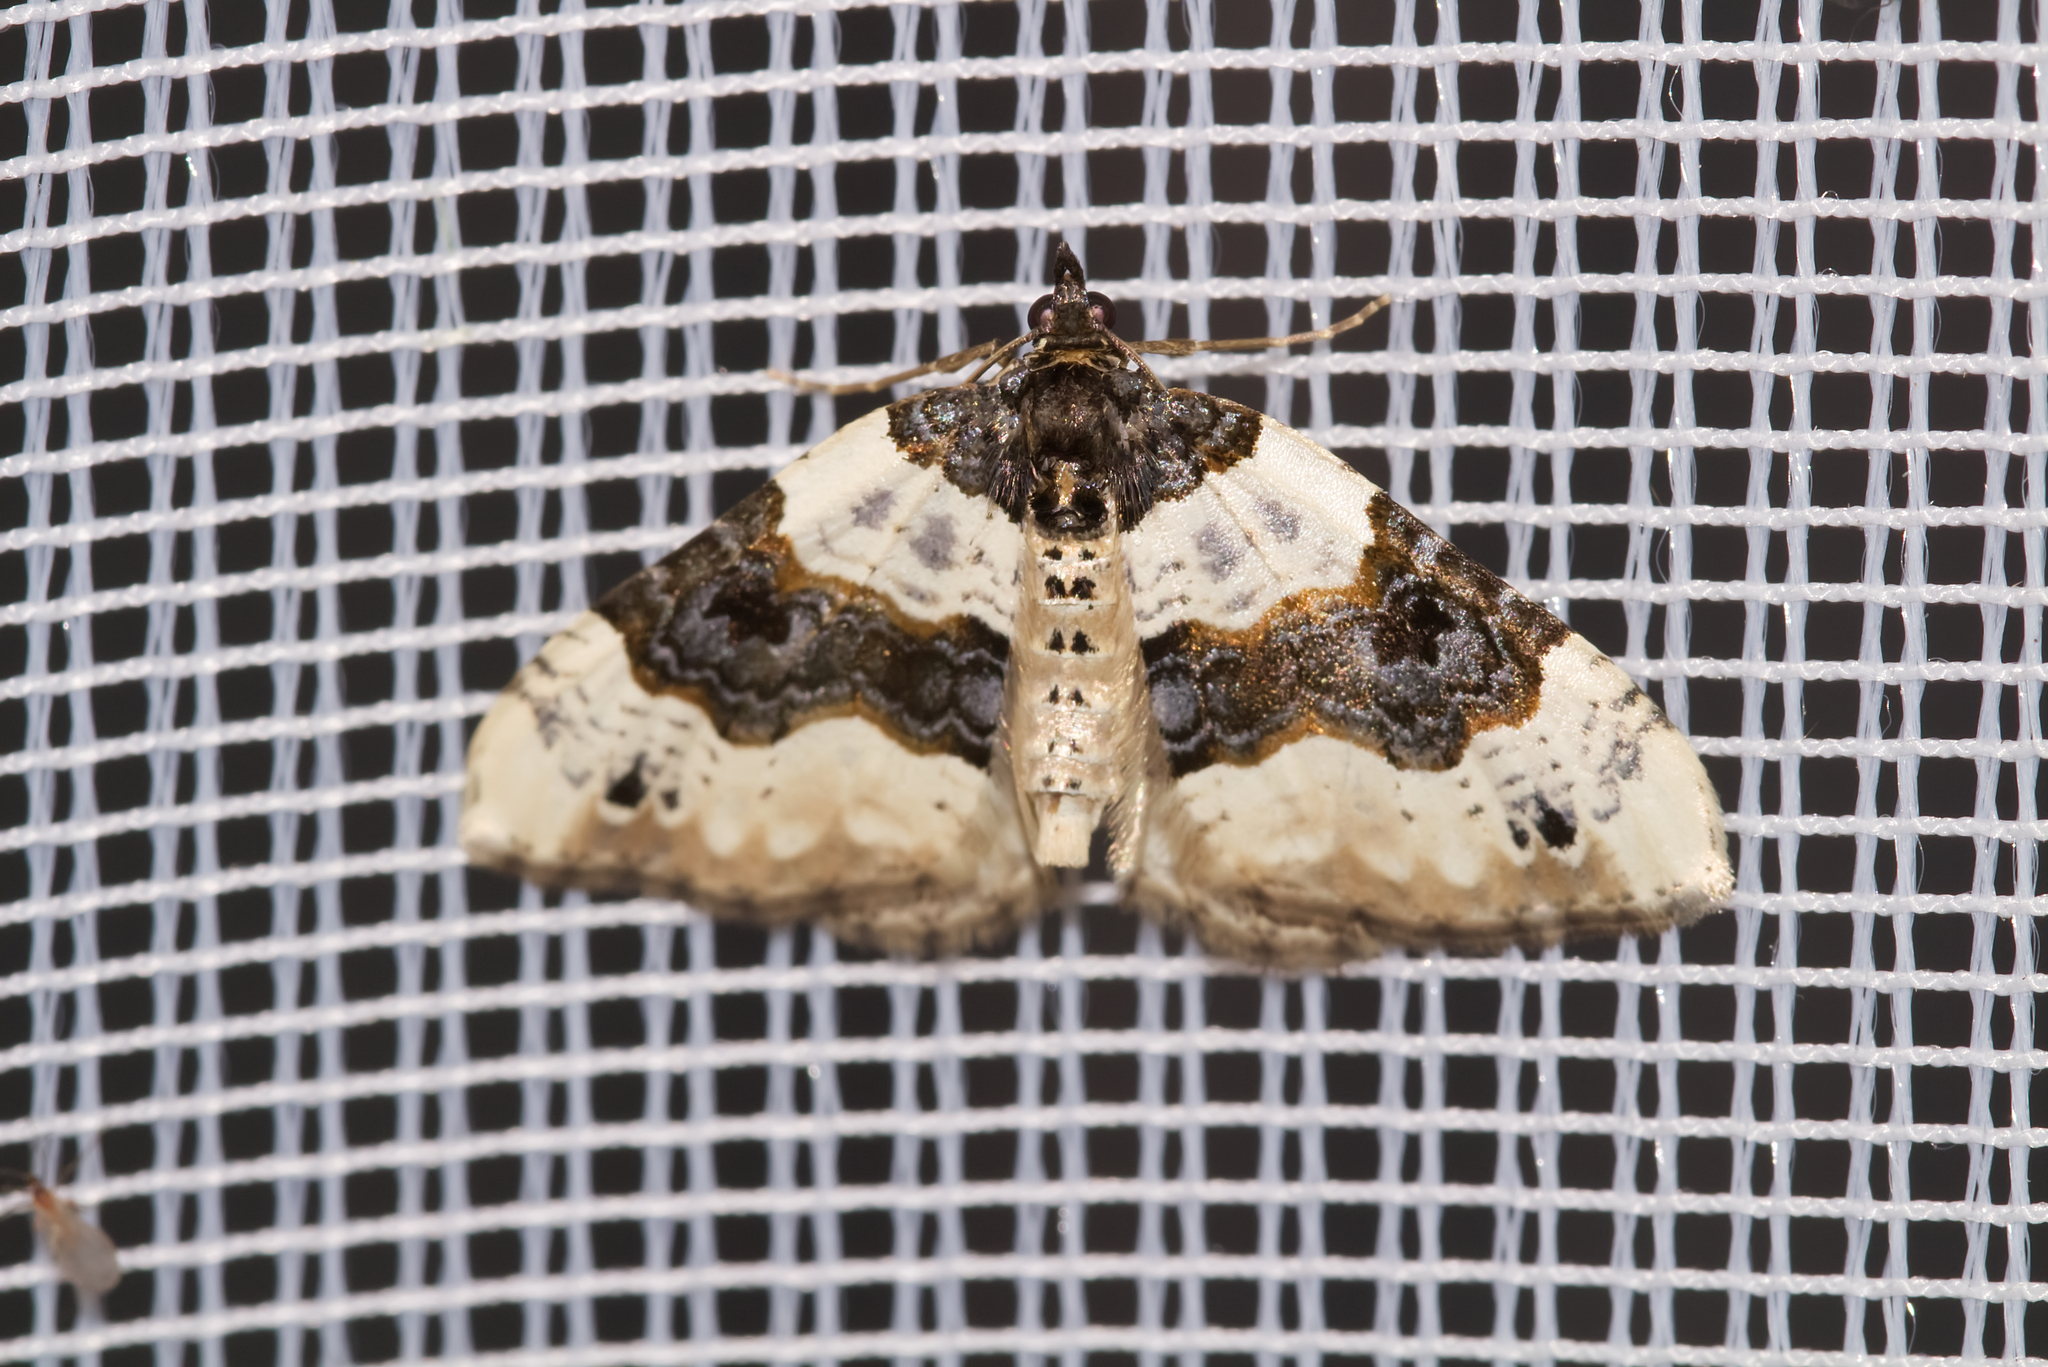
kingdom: Animalia
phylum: Arthropoda
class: Insecta
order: Lepidoptera
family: Geometridae
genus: Cosmorhoe
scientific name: Cosmorhoe ocellata
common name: Purple bar
